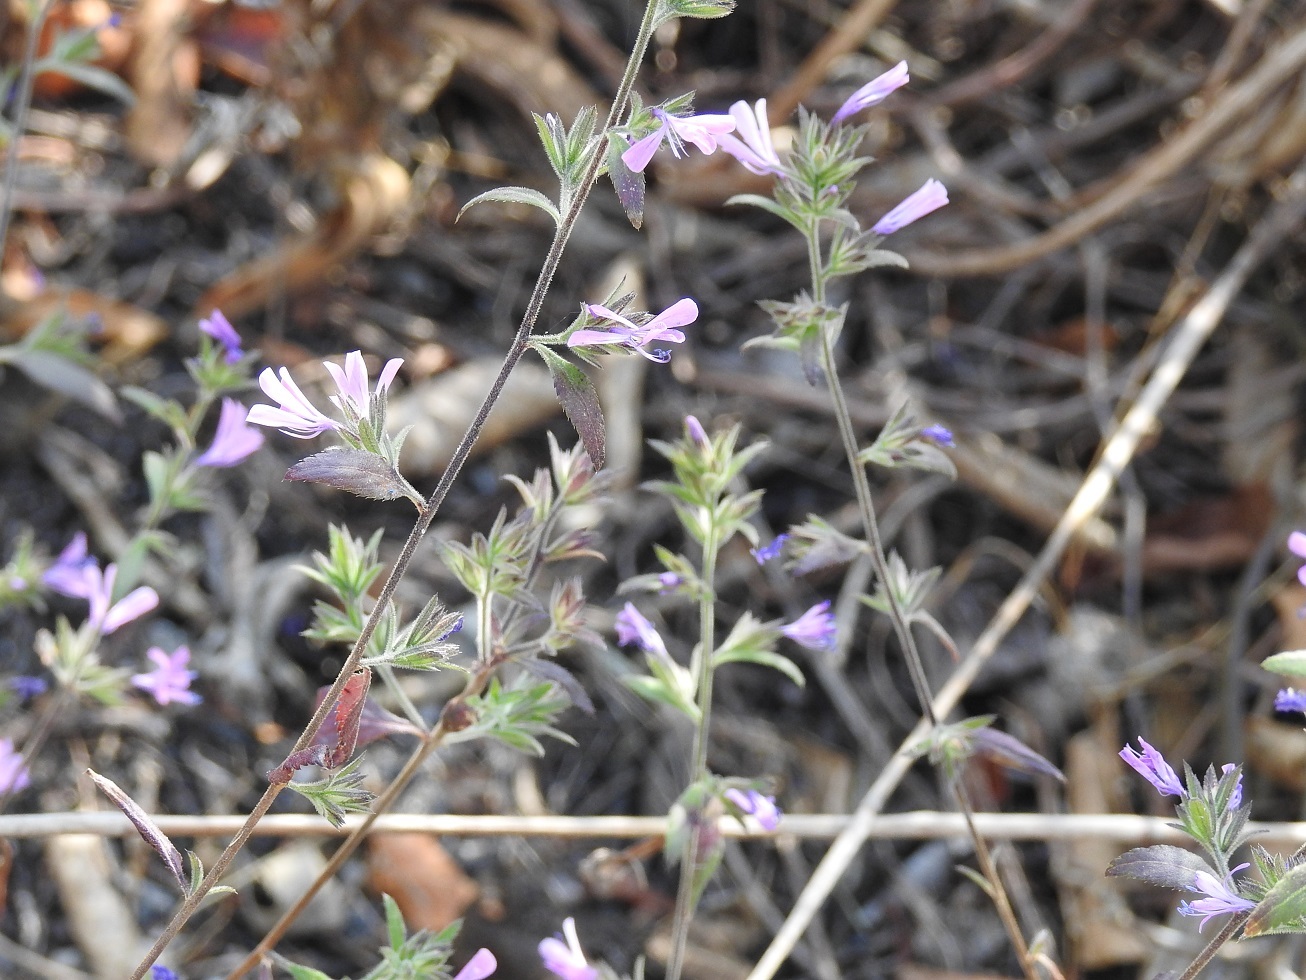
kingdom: Plantae
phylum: Tracheophyta
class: Magnoliopsida
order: Ericales
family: Polemoniaceae
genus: Loeselia
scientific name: Loeselia glandulosa
